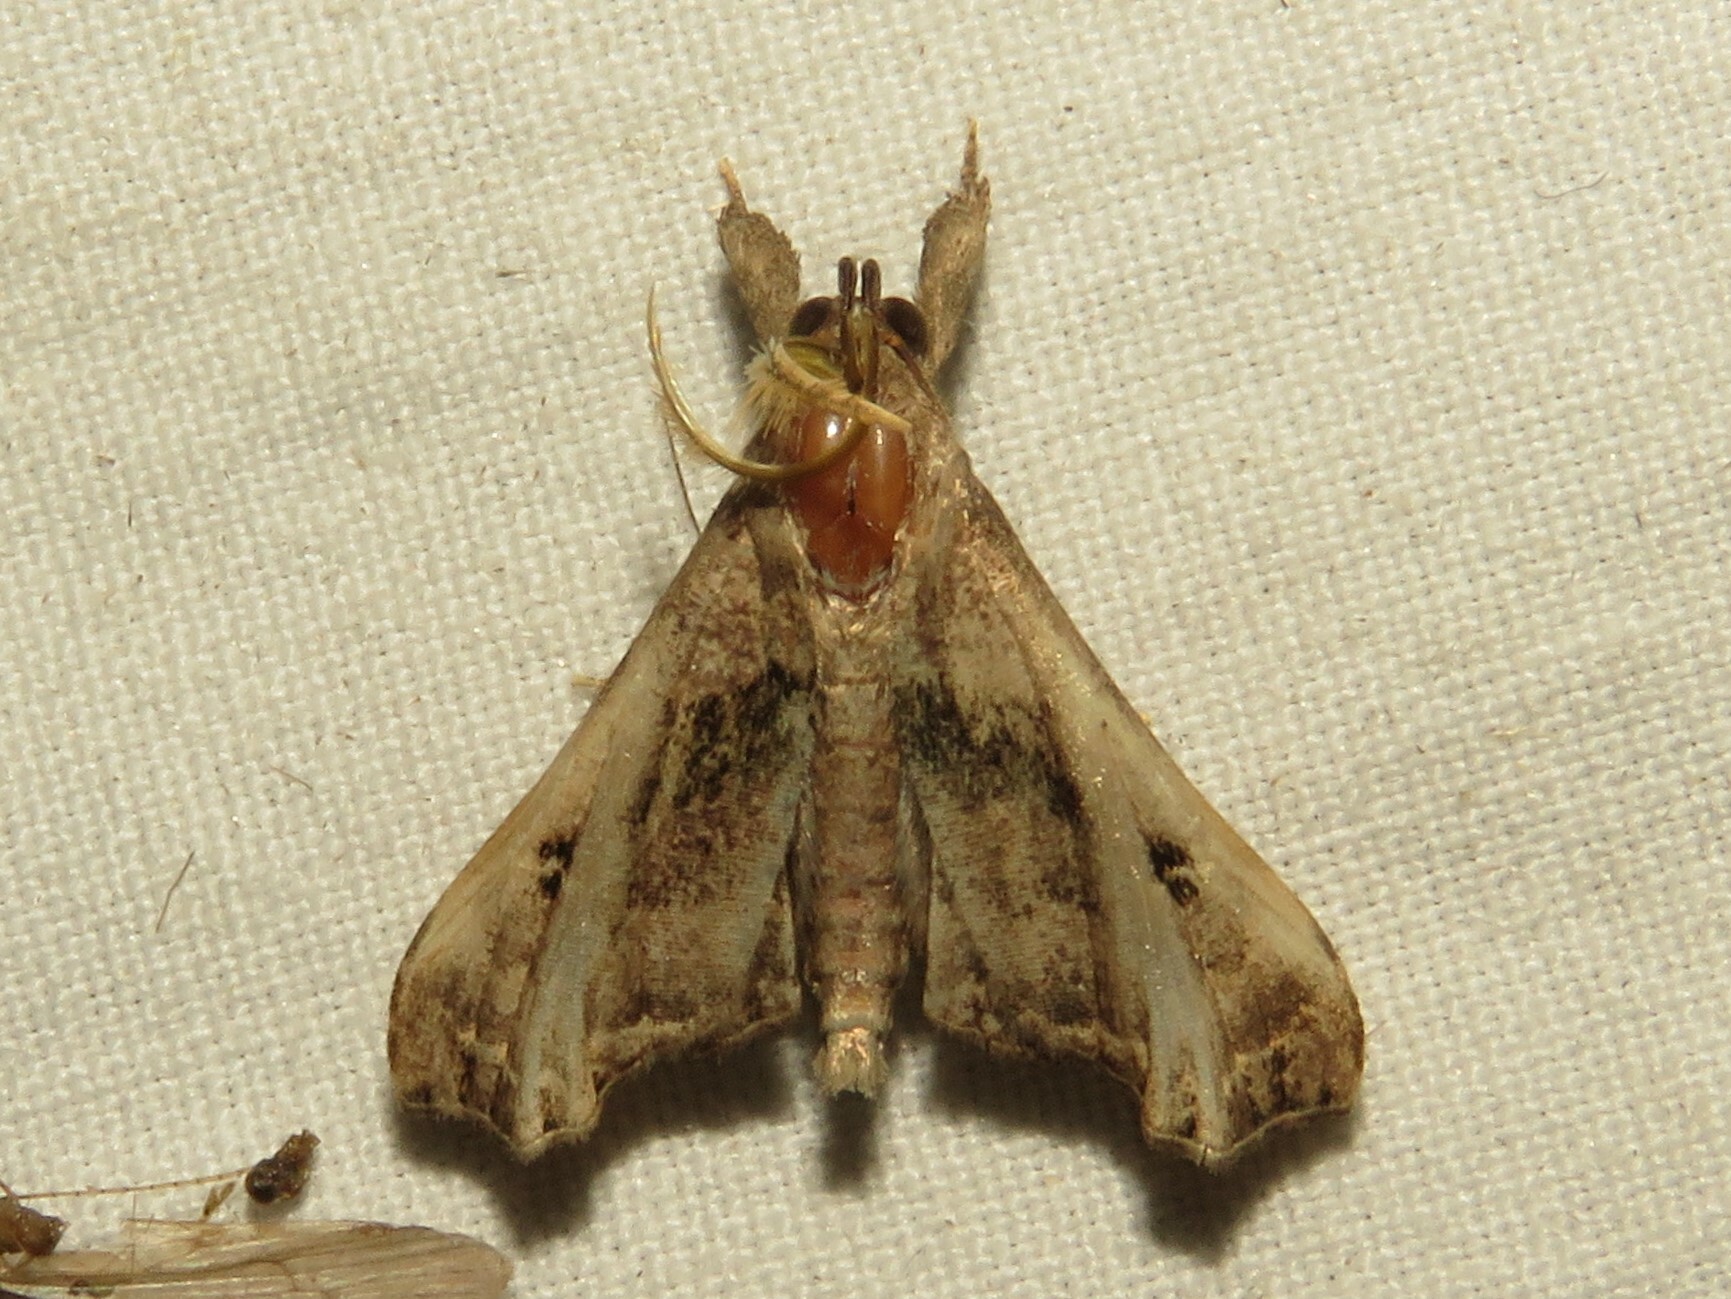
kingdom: Animalia
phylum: Arthropoda
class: Insecta
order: Lepidoptera
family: Erebidae
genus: Palthis
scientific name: Palthis asopialis
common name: Faint-spotted palthis moth
